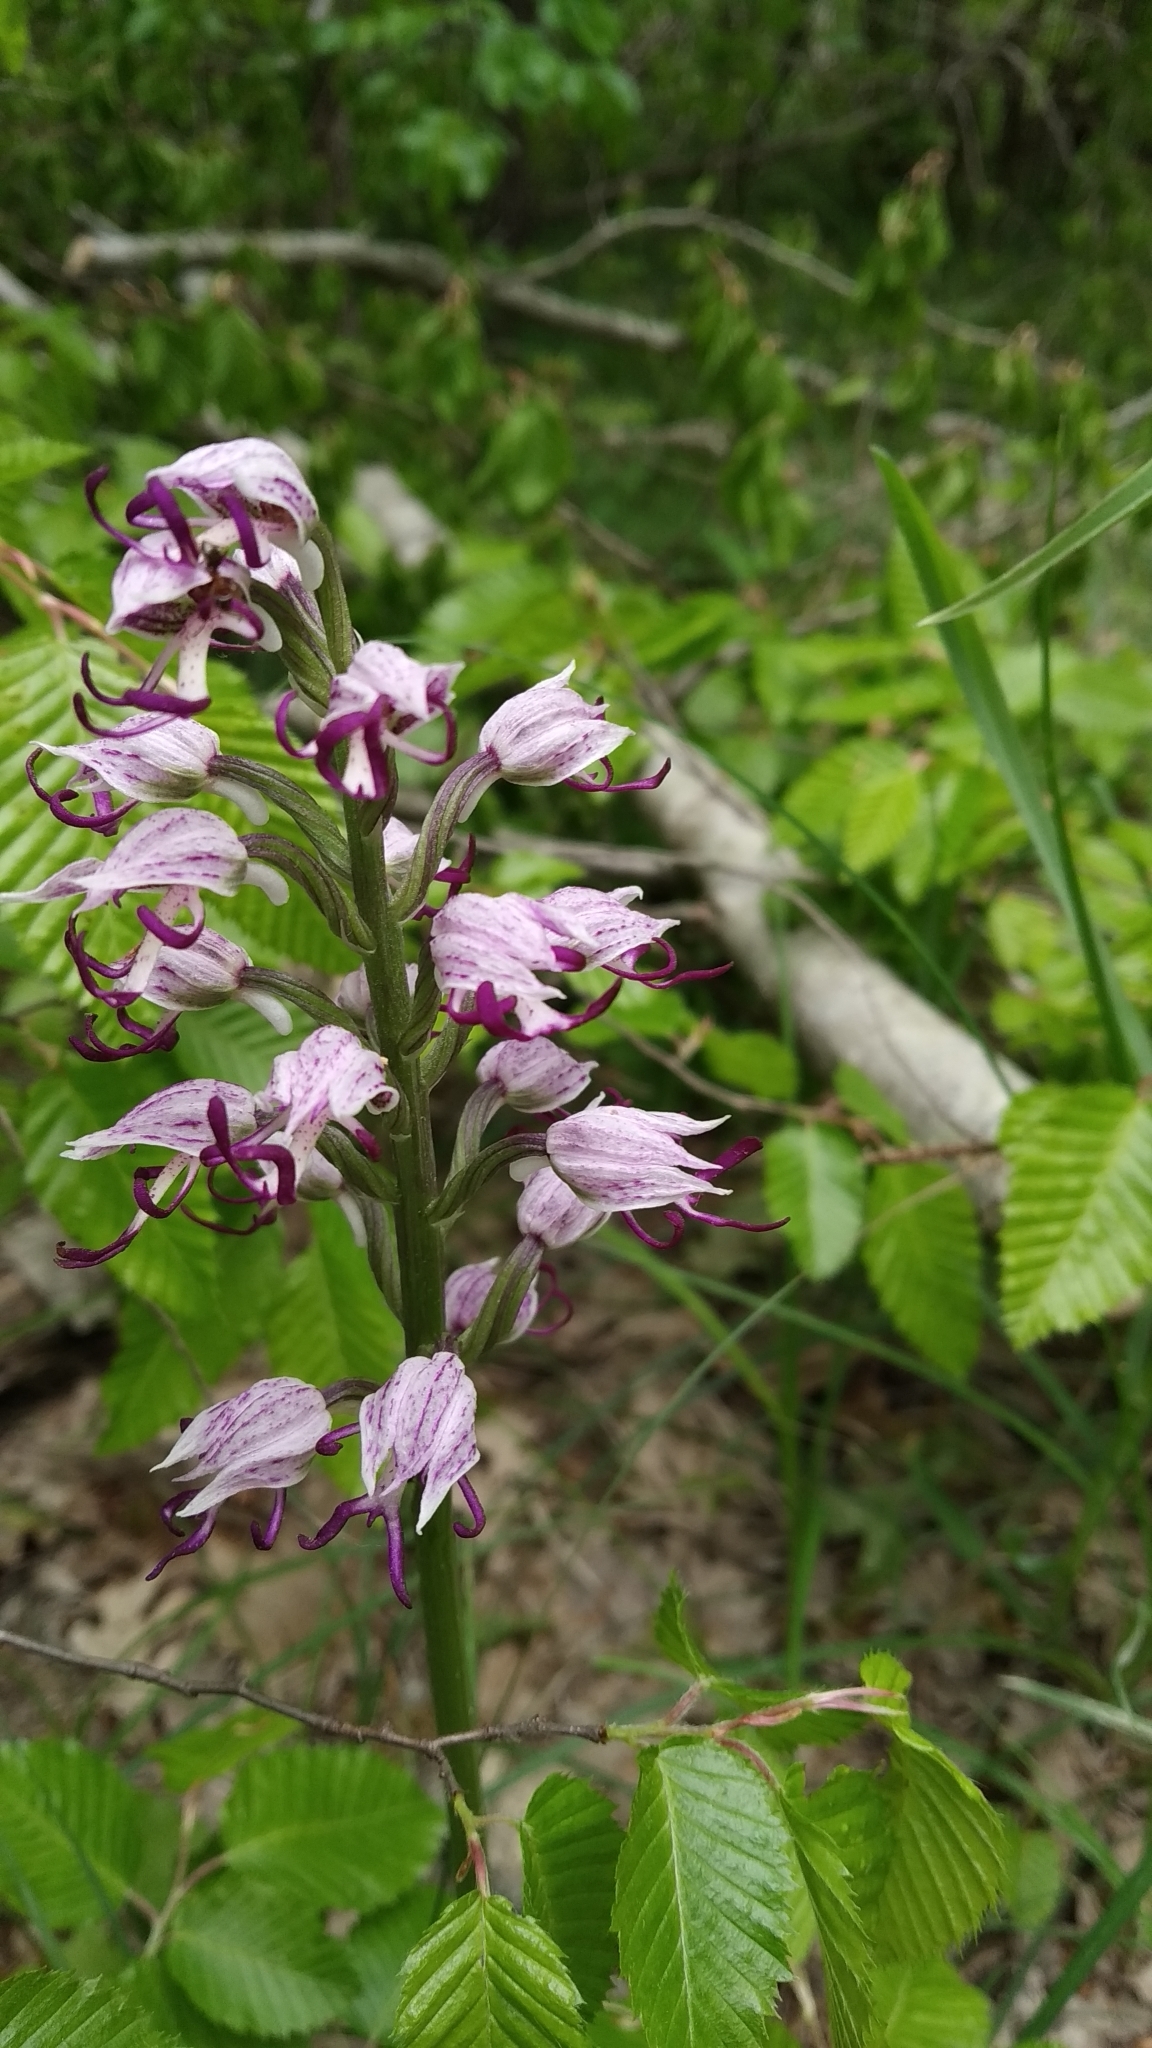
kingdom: Plantae
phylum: Tracheophyta
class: Liliopsida
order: Asparagales
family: Orchidaceae
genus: Orchis
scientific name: Orchis simia
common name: Monkey orchid
